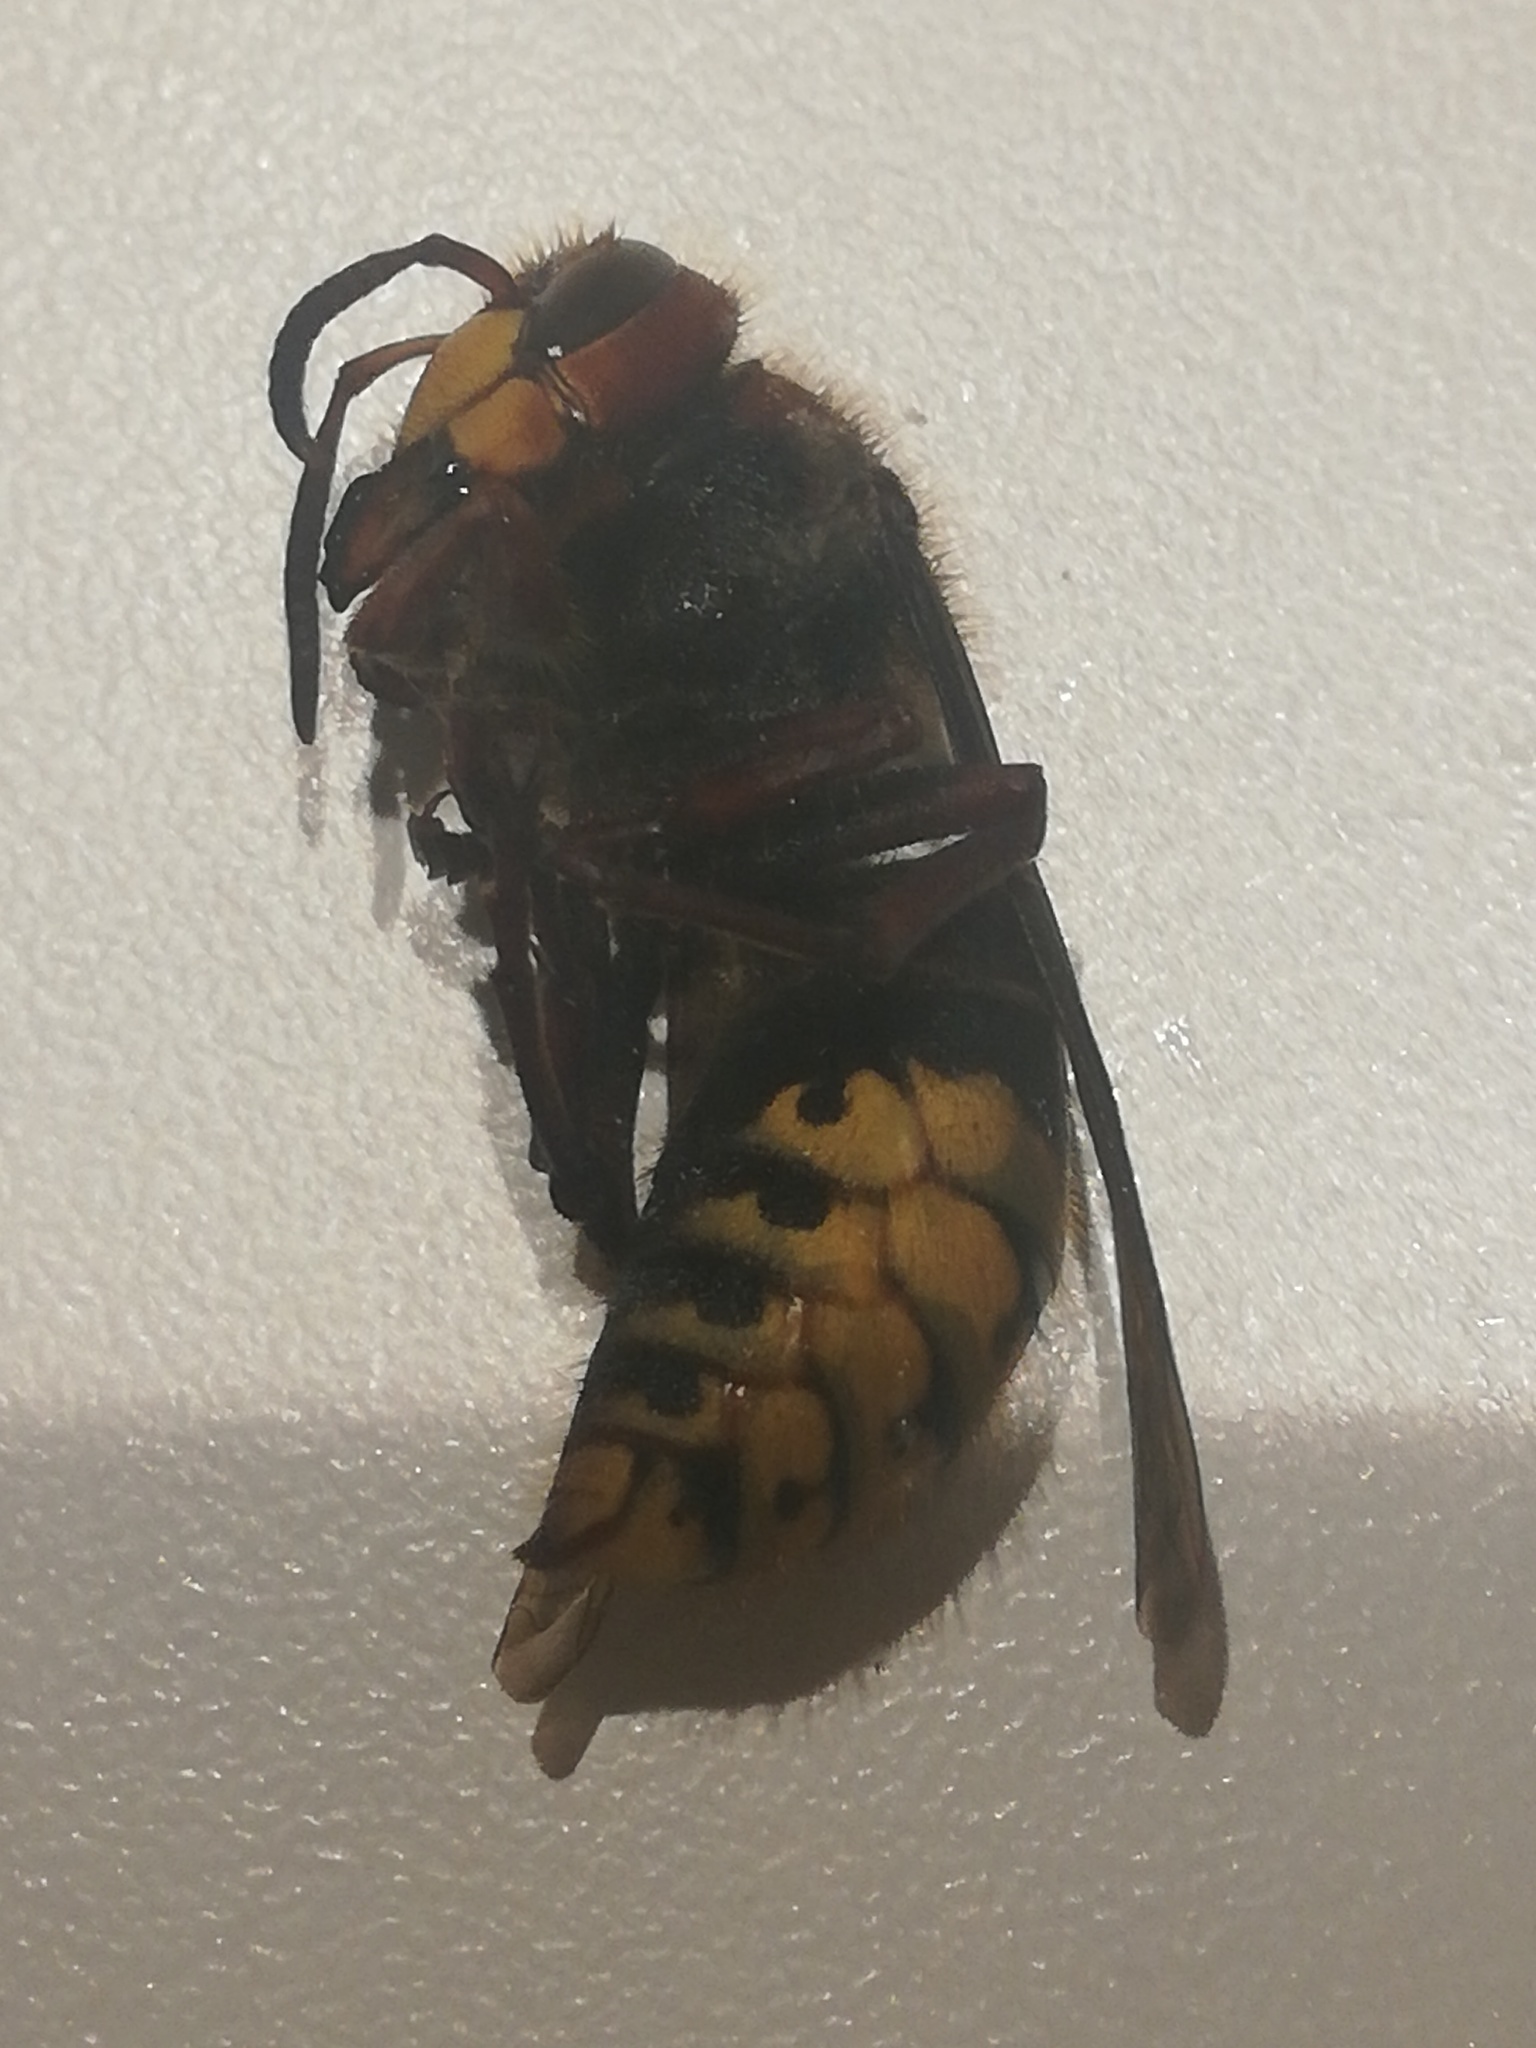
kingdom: Animalia
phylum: Arthropoda
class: Insecta
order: Hymenoptera
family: Vespidae
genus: Vespa
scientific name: Vespa crabro
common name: Hornet
